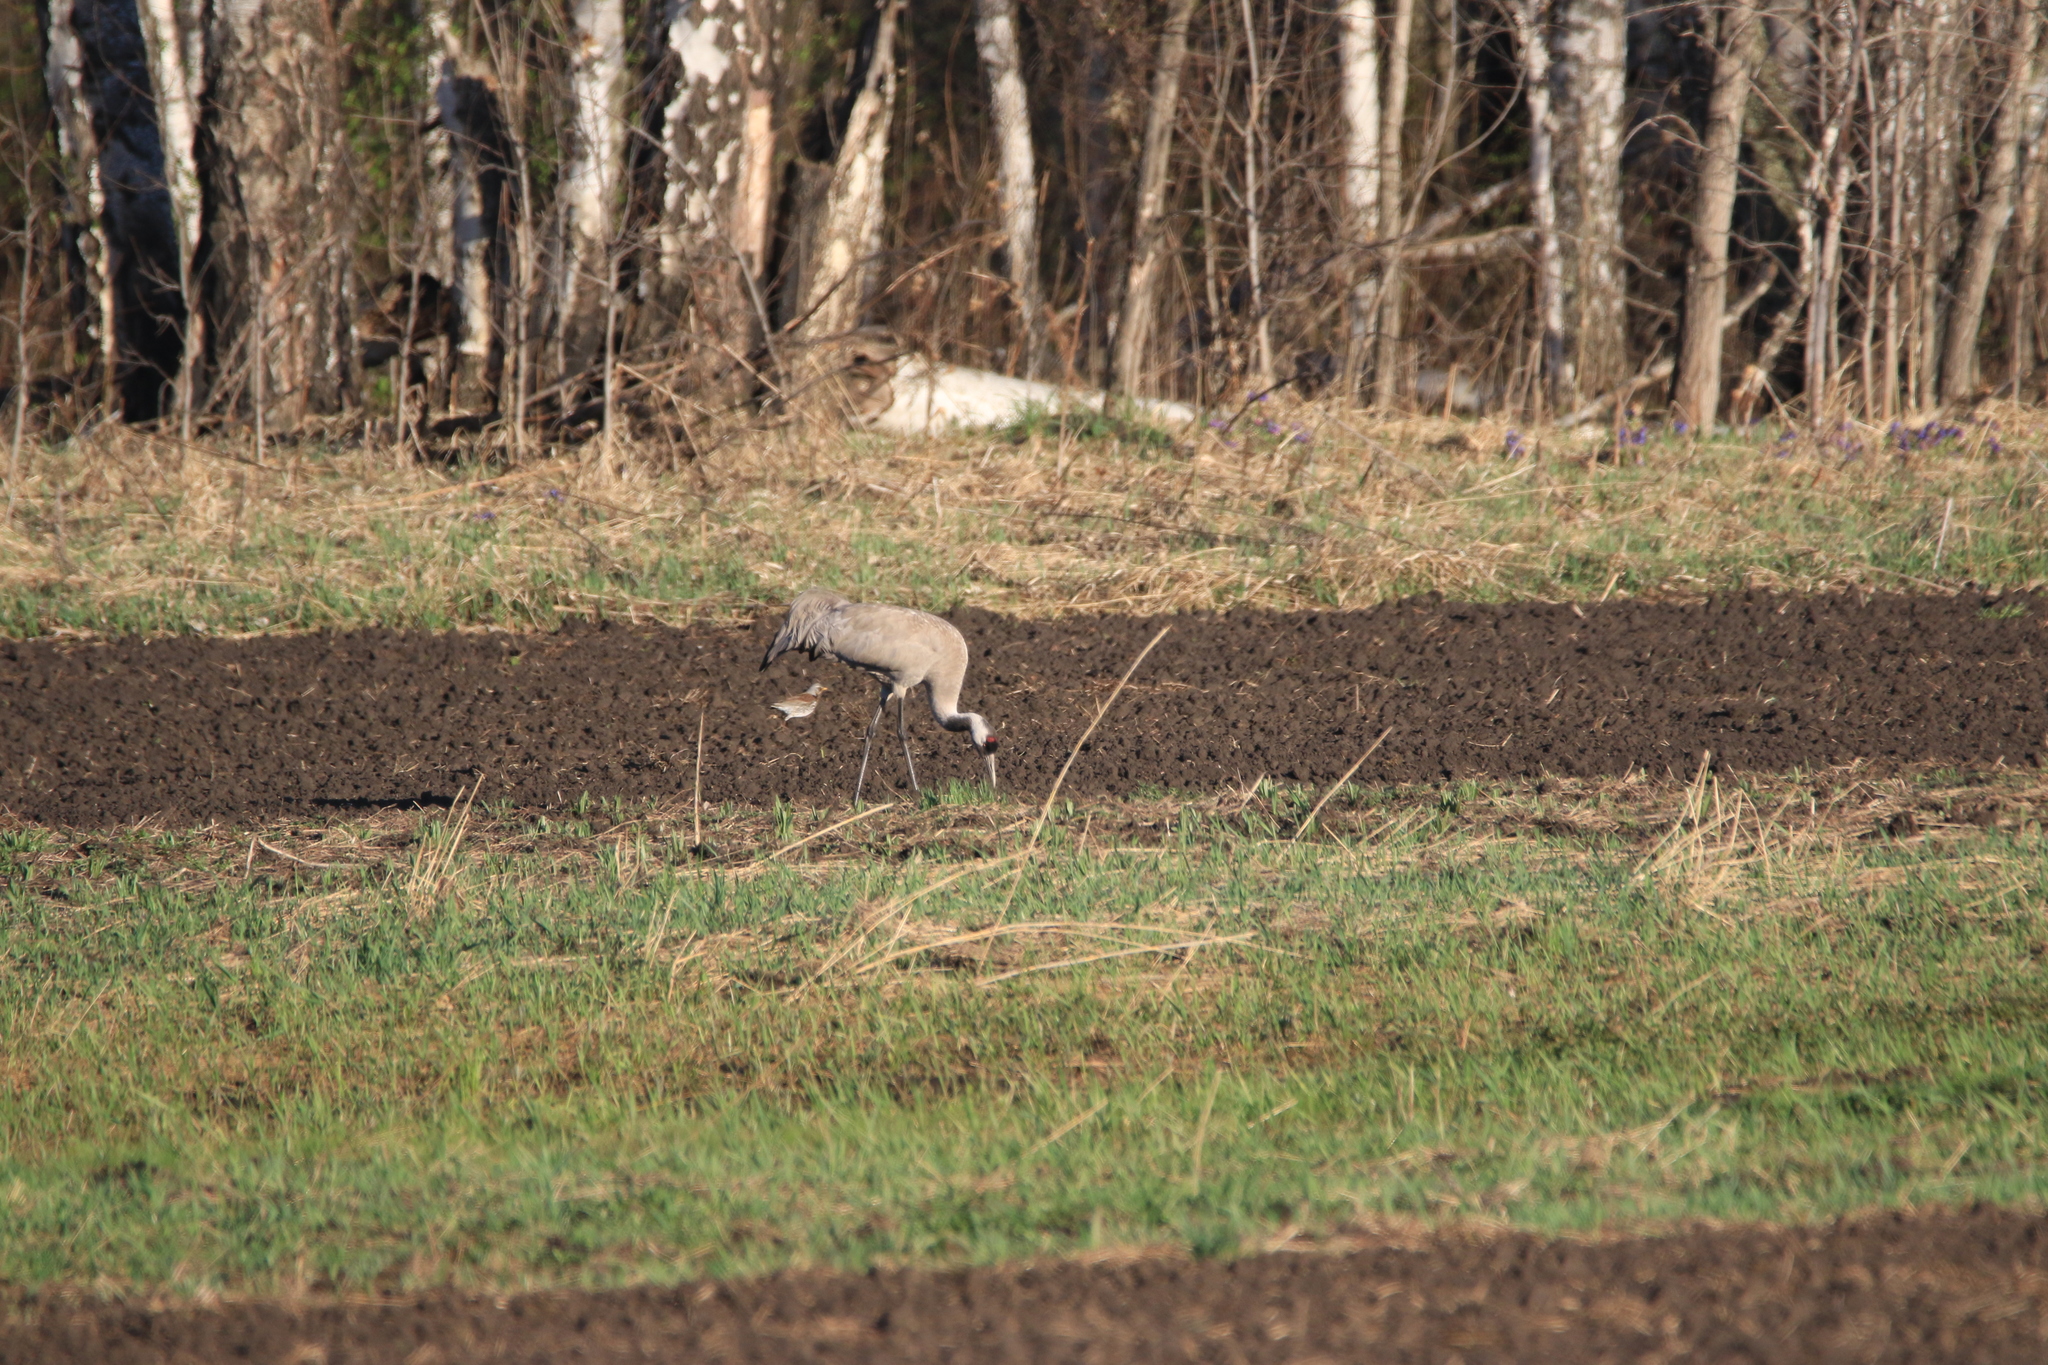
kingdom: Animalia
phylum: Chordata
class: Aves
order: Gruiformes
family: Gruidae
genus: Grus
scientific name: Grus grus
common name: Common crane
